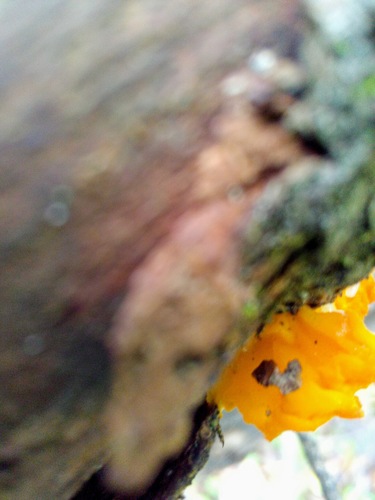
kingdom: Fungi
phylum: Basidiomycota
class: Tremellomycetes
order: Tremellales
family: Tremellaceae
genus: Tremella
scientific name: Tremella mesenterica
